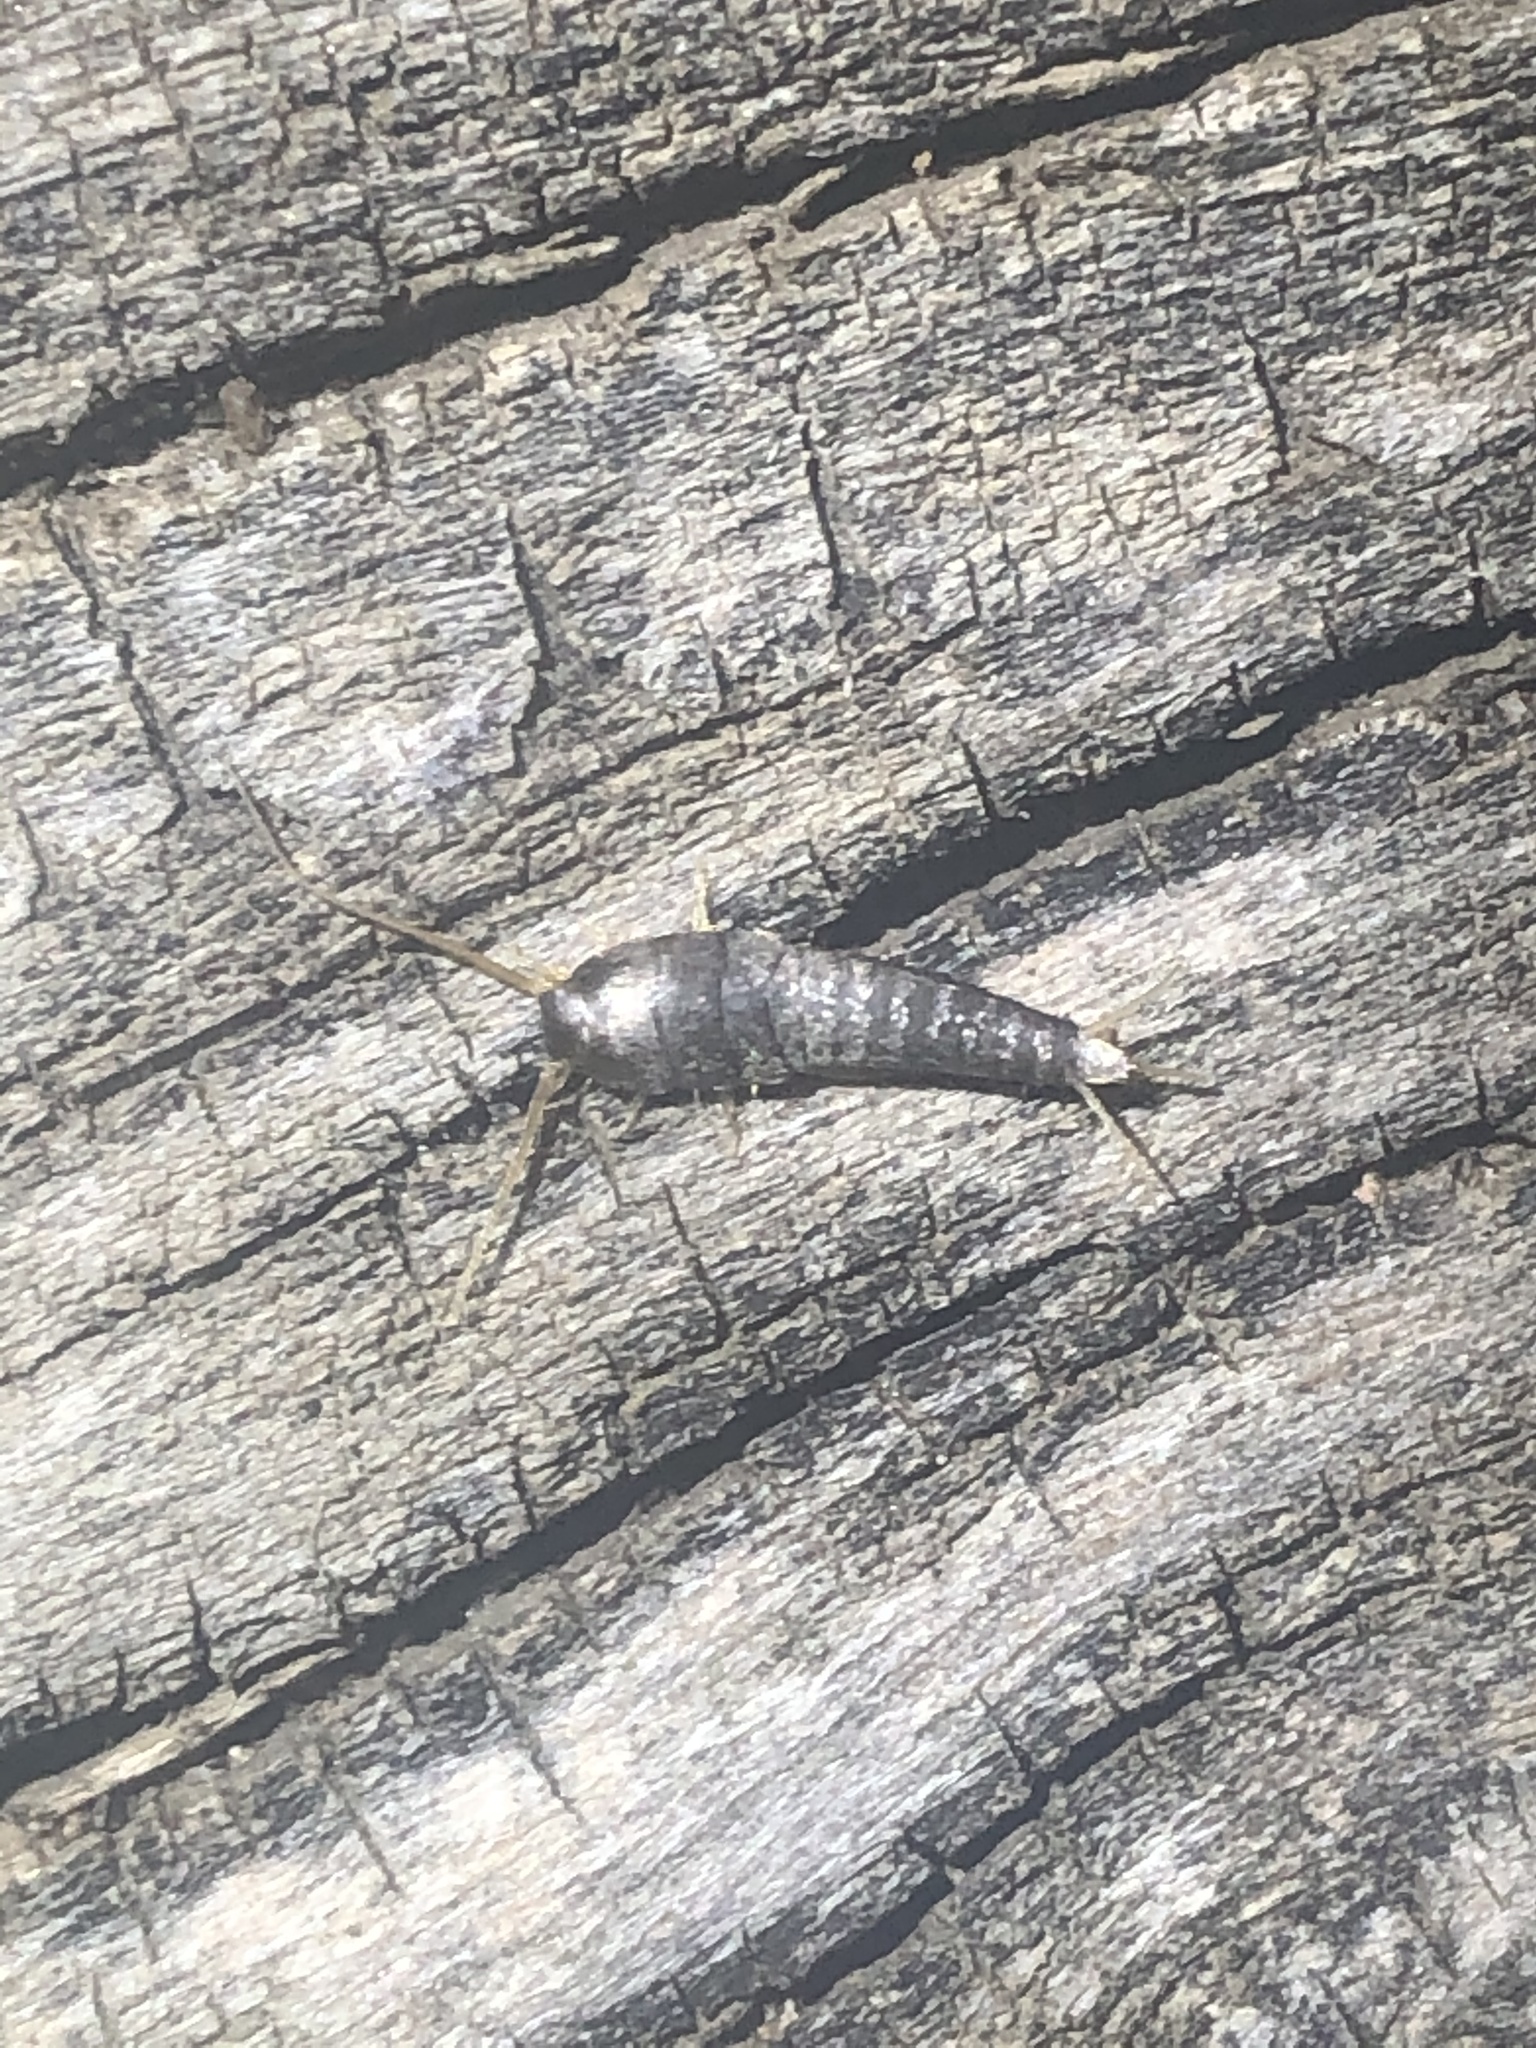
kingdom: Animalia
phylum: Arthropoda
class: Insecta
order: Zygentoma
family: Lepismatidae
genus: Lepisma
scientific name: Lepisma saccharinum
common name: Silverfish
